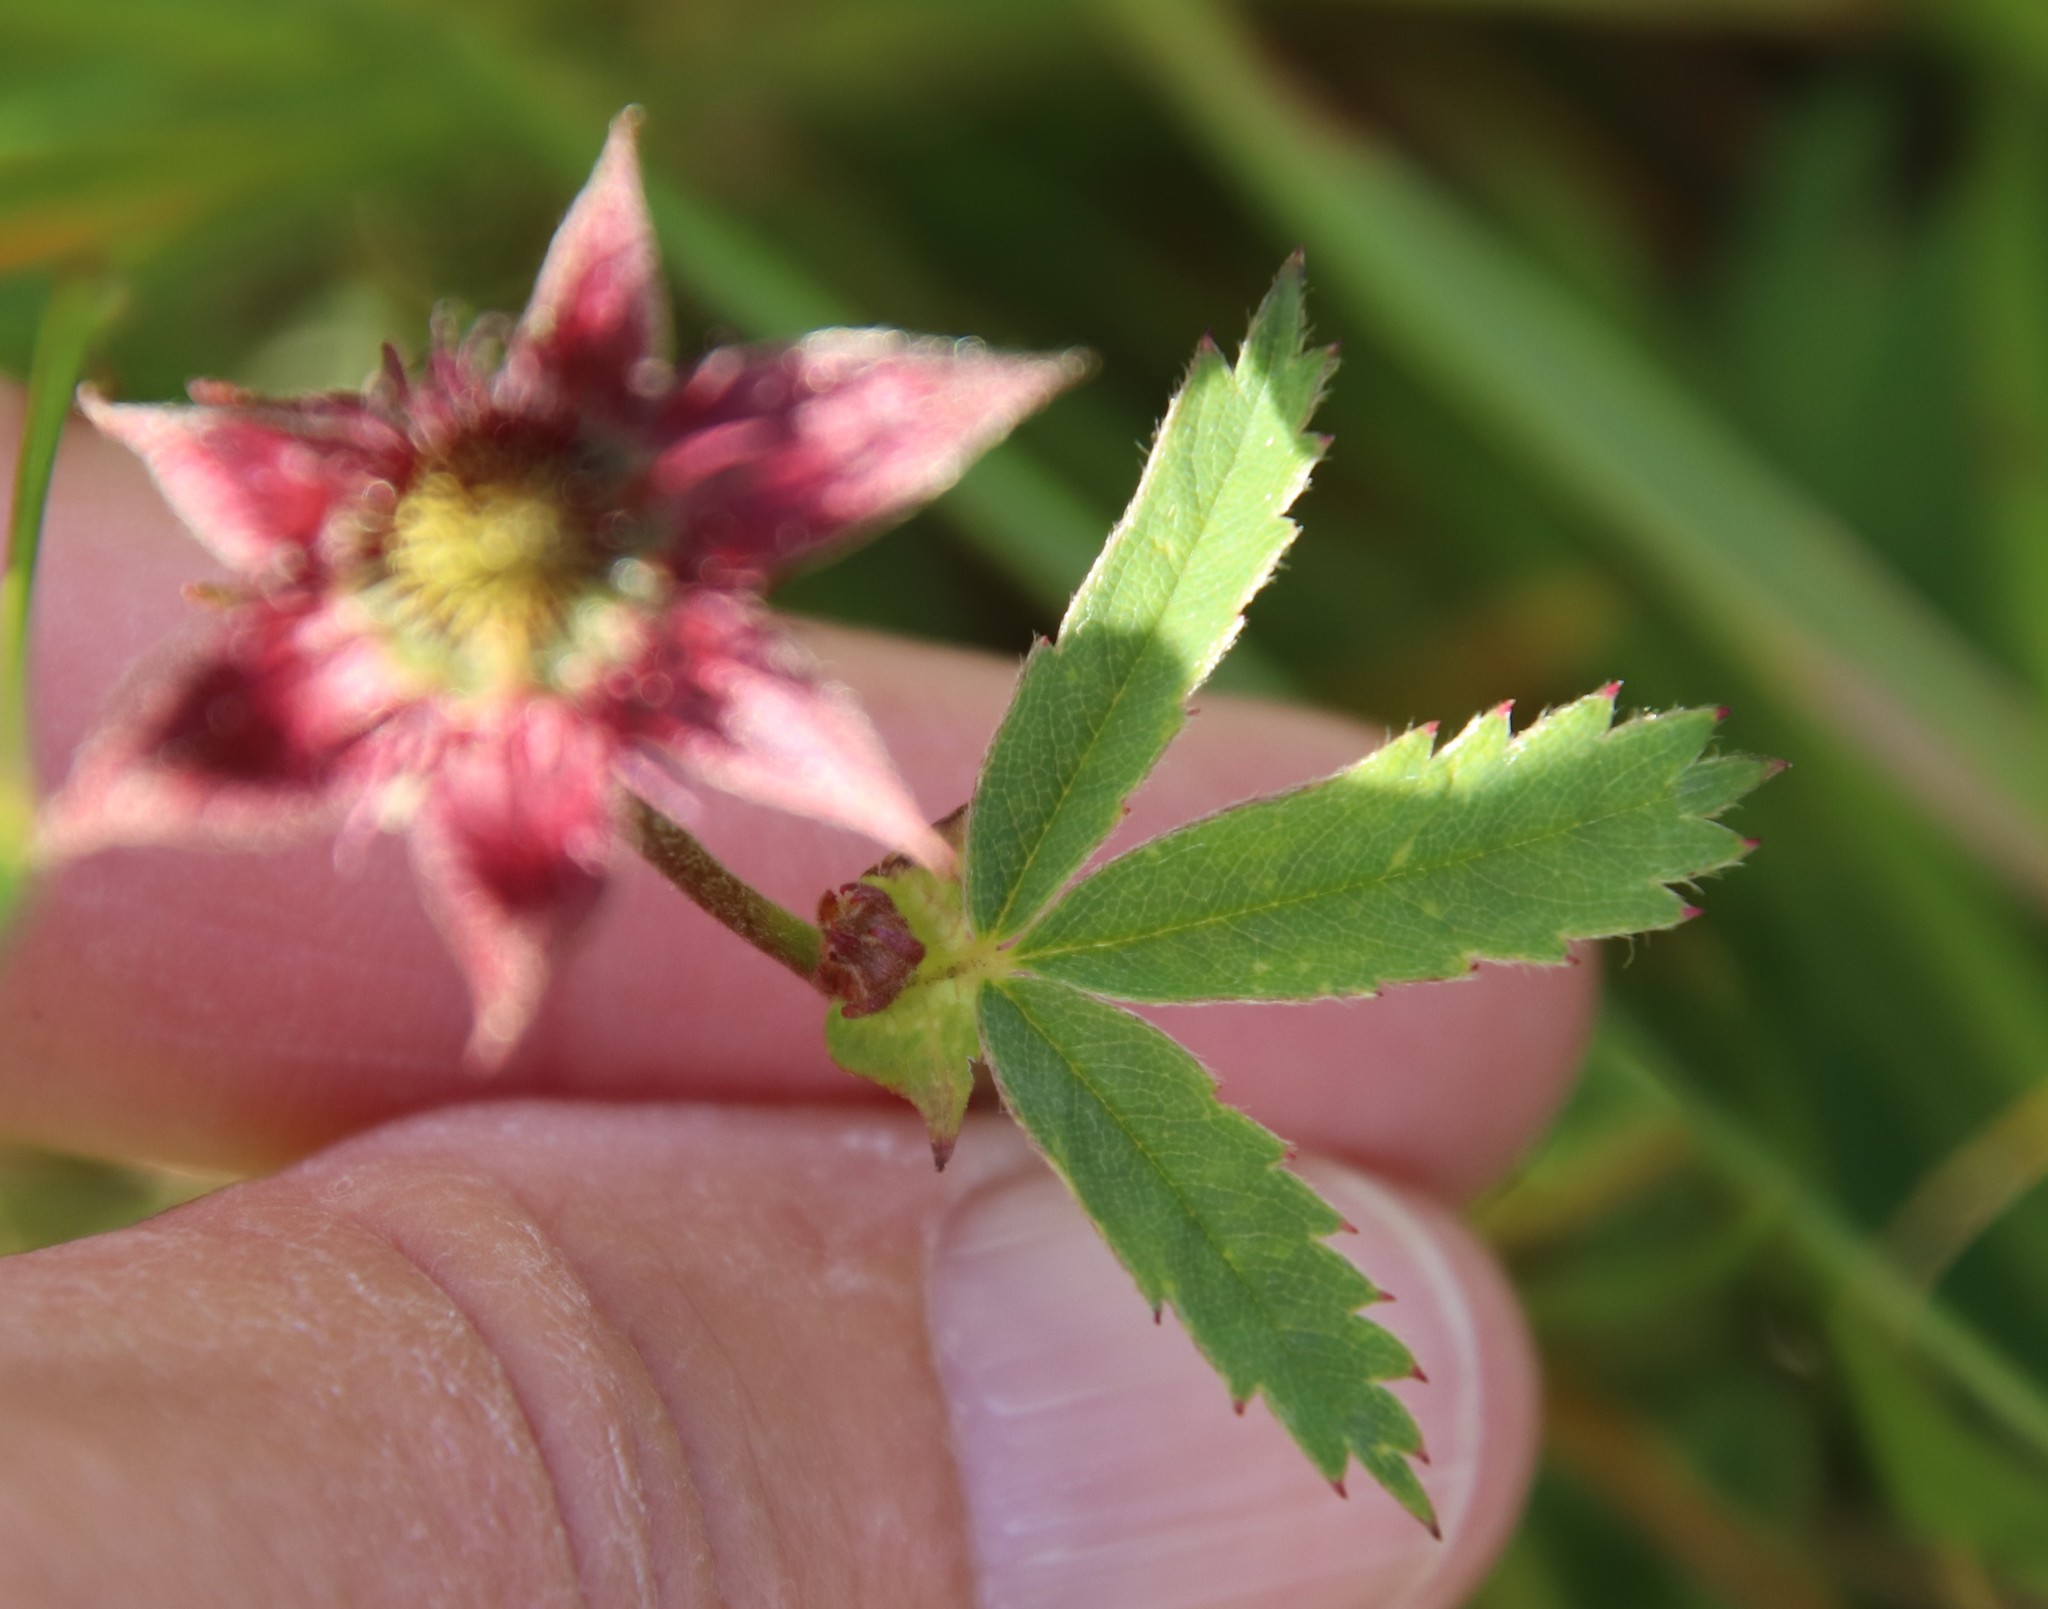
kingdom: Plantae
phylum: Tracheophyta
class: Magnoliopsida
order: Rosales
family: Rosaceae
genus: Comarum
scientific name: Comarum palustre
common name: Marsh cinquefoil
